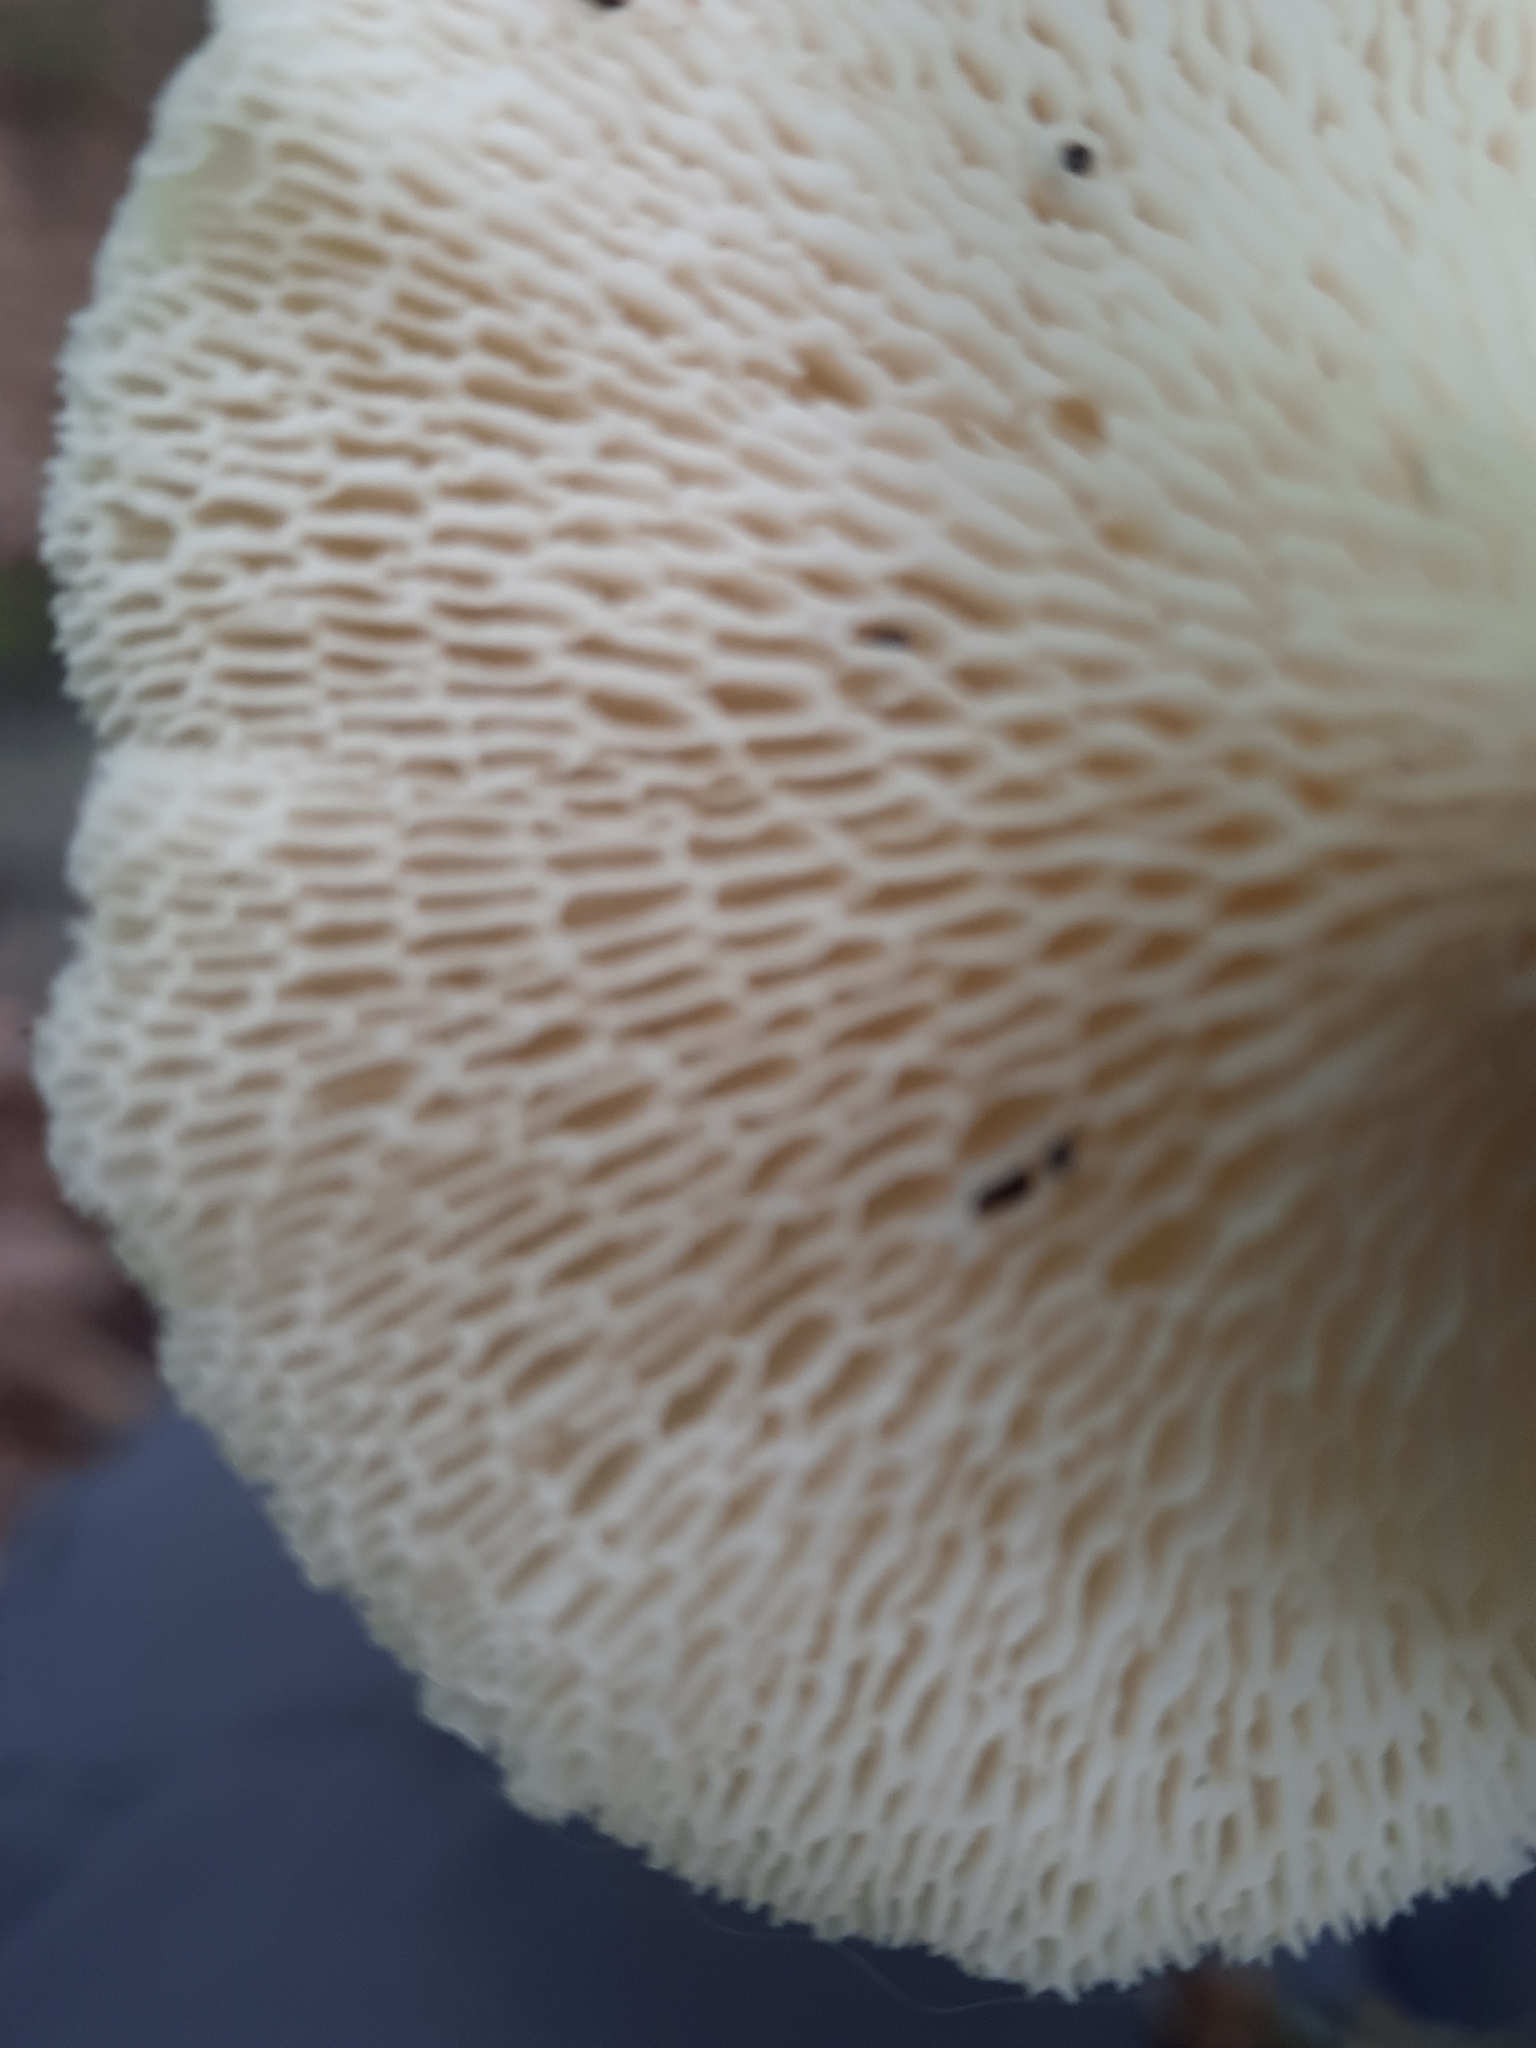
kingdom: Fungi
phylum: Basidiomycota
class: Agaricomycetes
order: Polyporales
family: Polyporaceae
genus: Neofavolus
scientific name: Neofavolus
